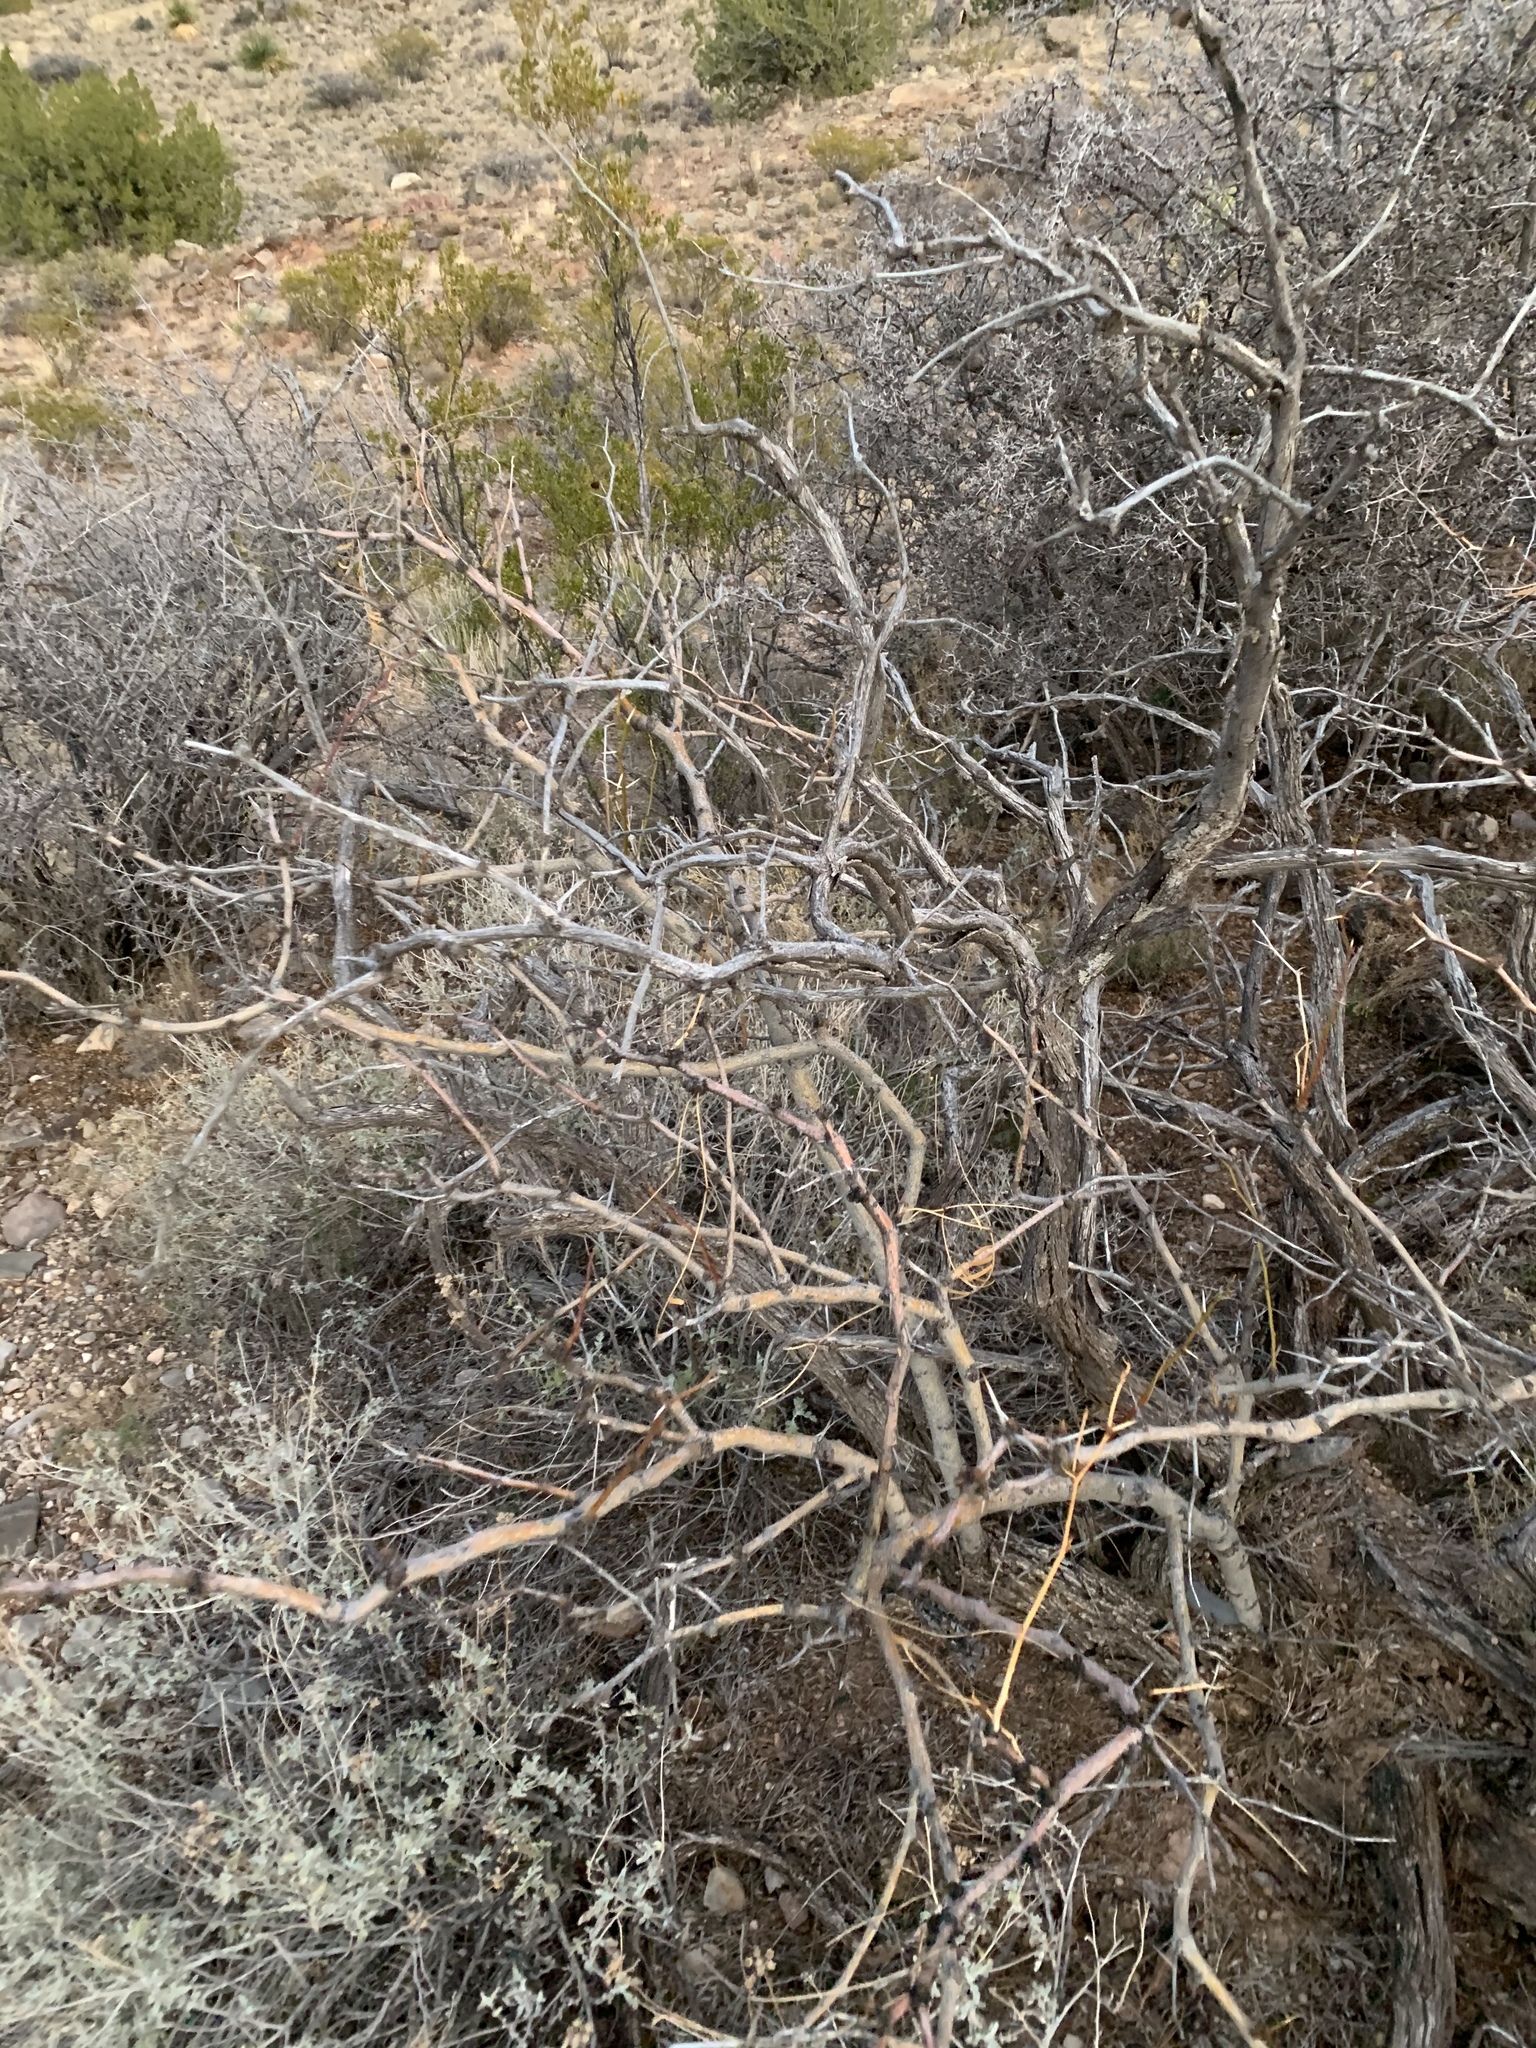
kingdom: Plantae
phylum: Tracheophyta
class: Magnoliopsida
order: Fabales
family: Fabaceae
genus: Prosopis
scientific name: Prosopis glandulosa
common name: Honey mesquite
